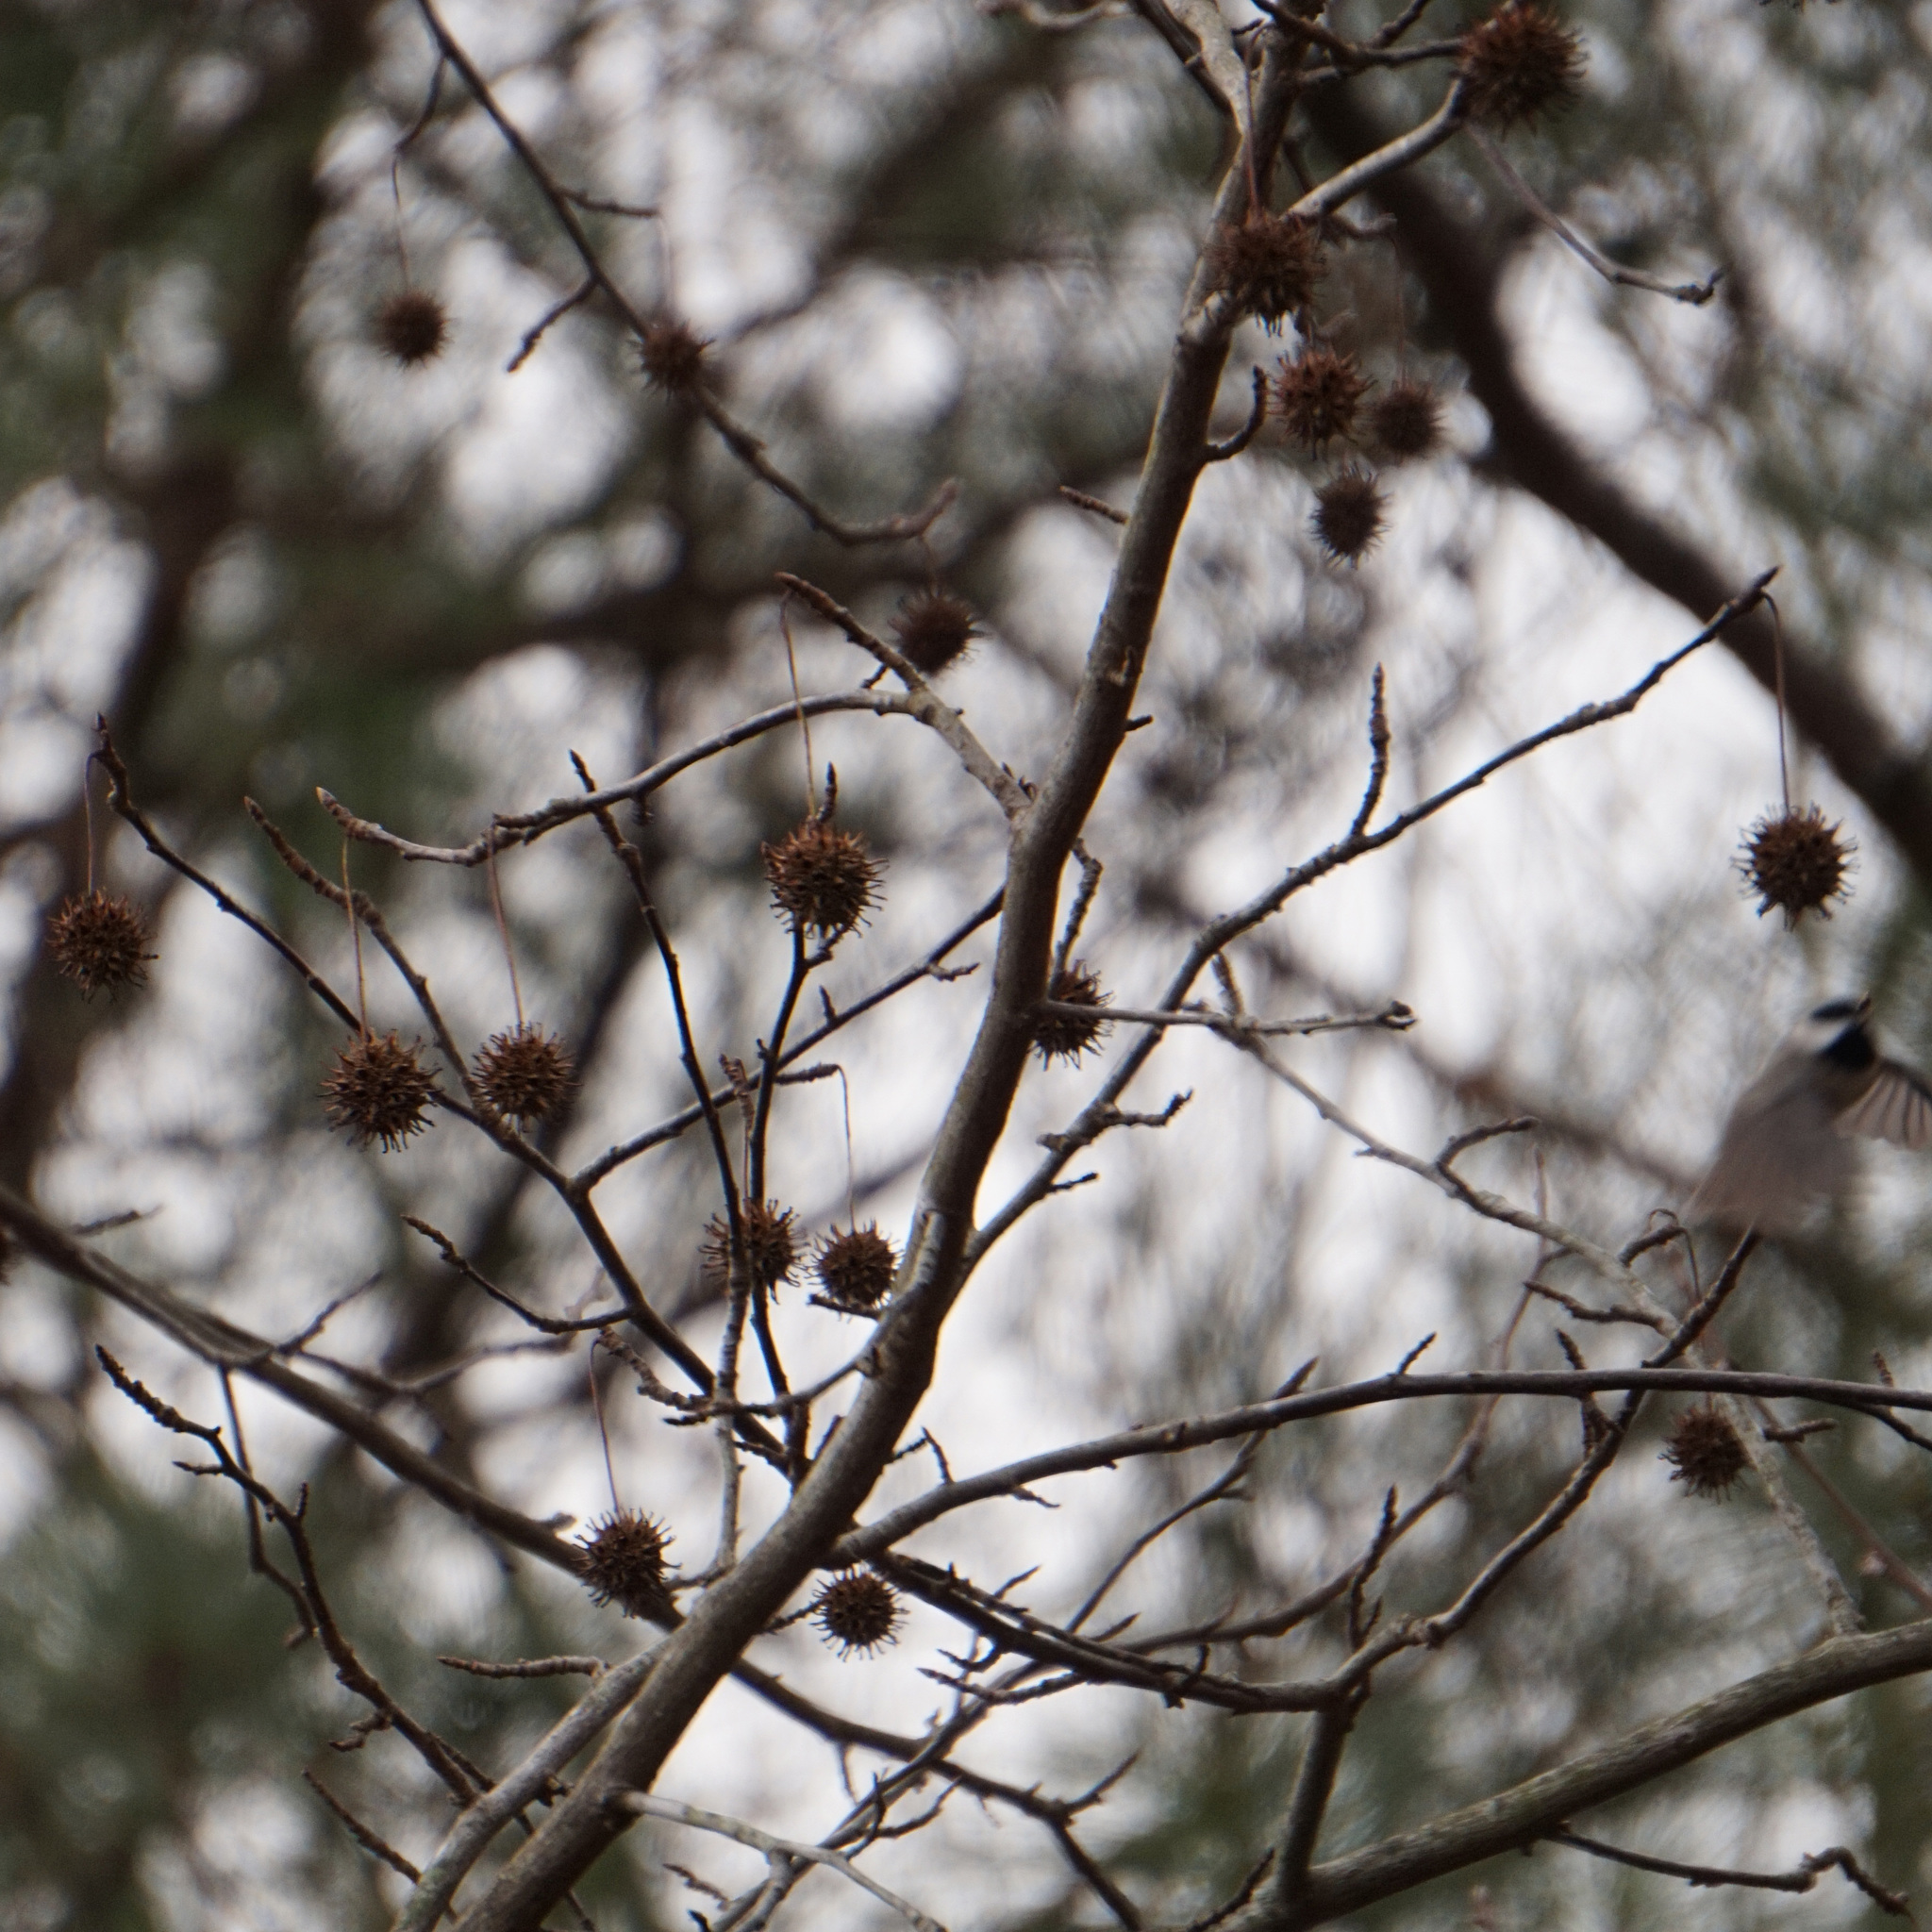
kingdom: Plantae
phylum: Tracheophyta
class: Magnoliopsida
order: Saxifragales
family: Altingiaceae
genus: Liquidambar
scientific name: Liquidambar styraciflua
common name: Sweet gum
